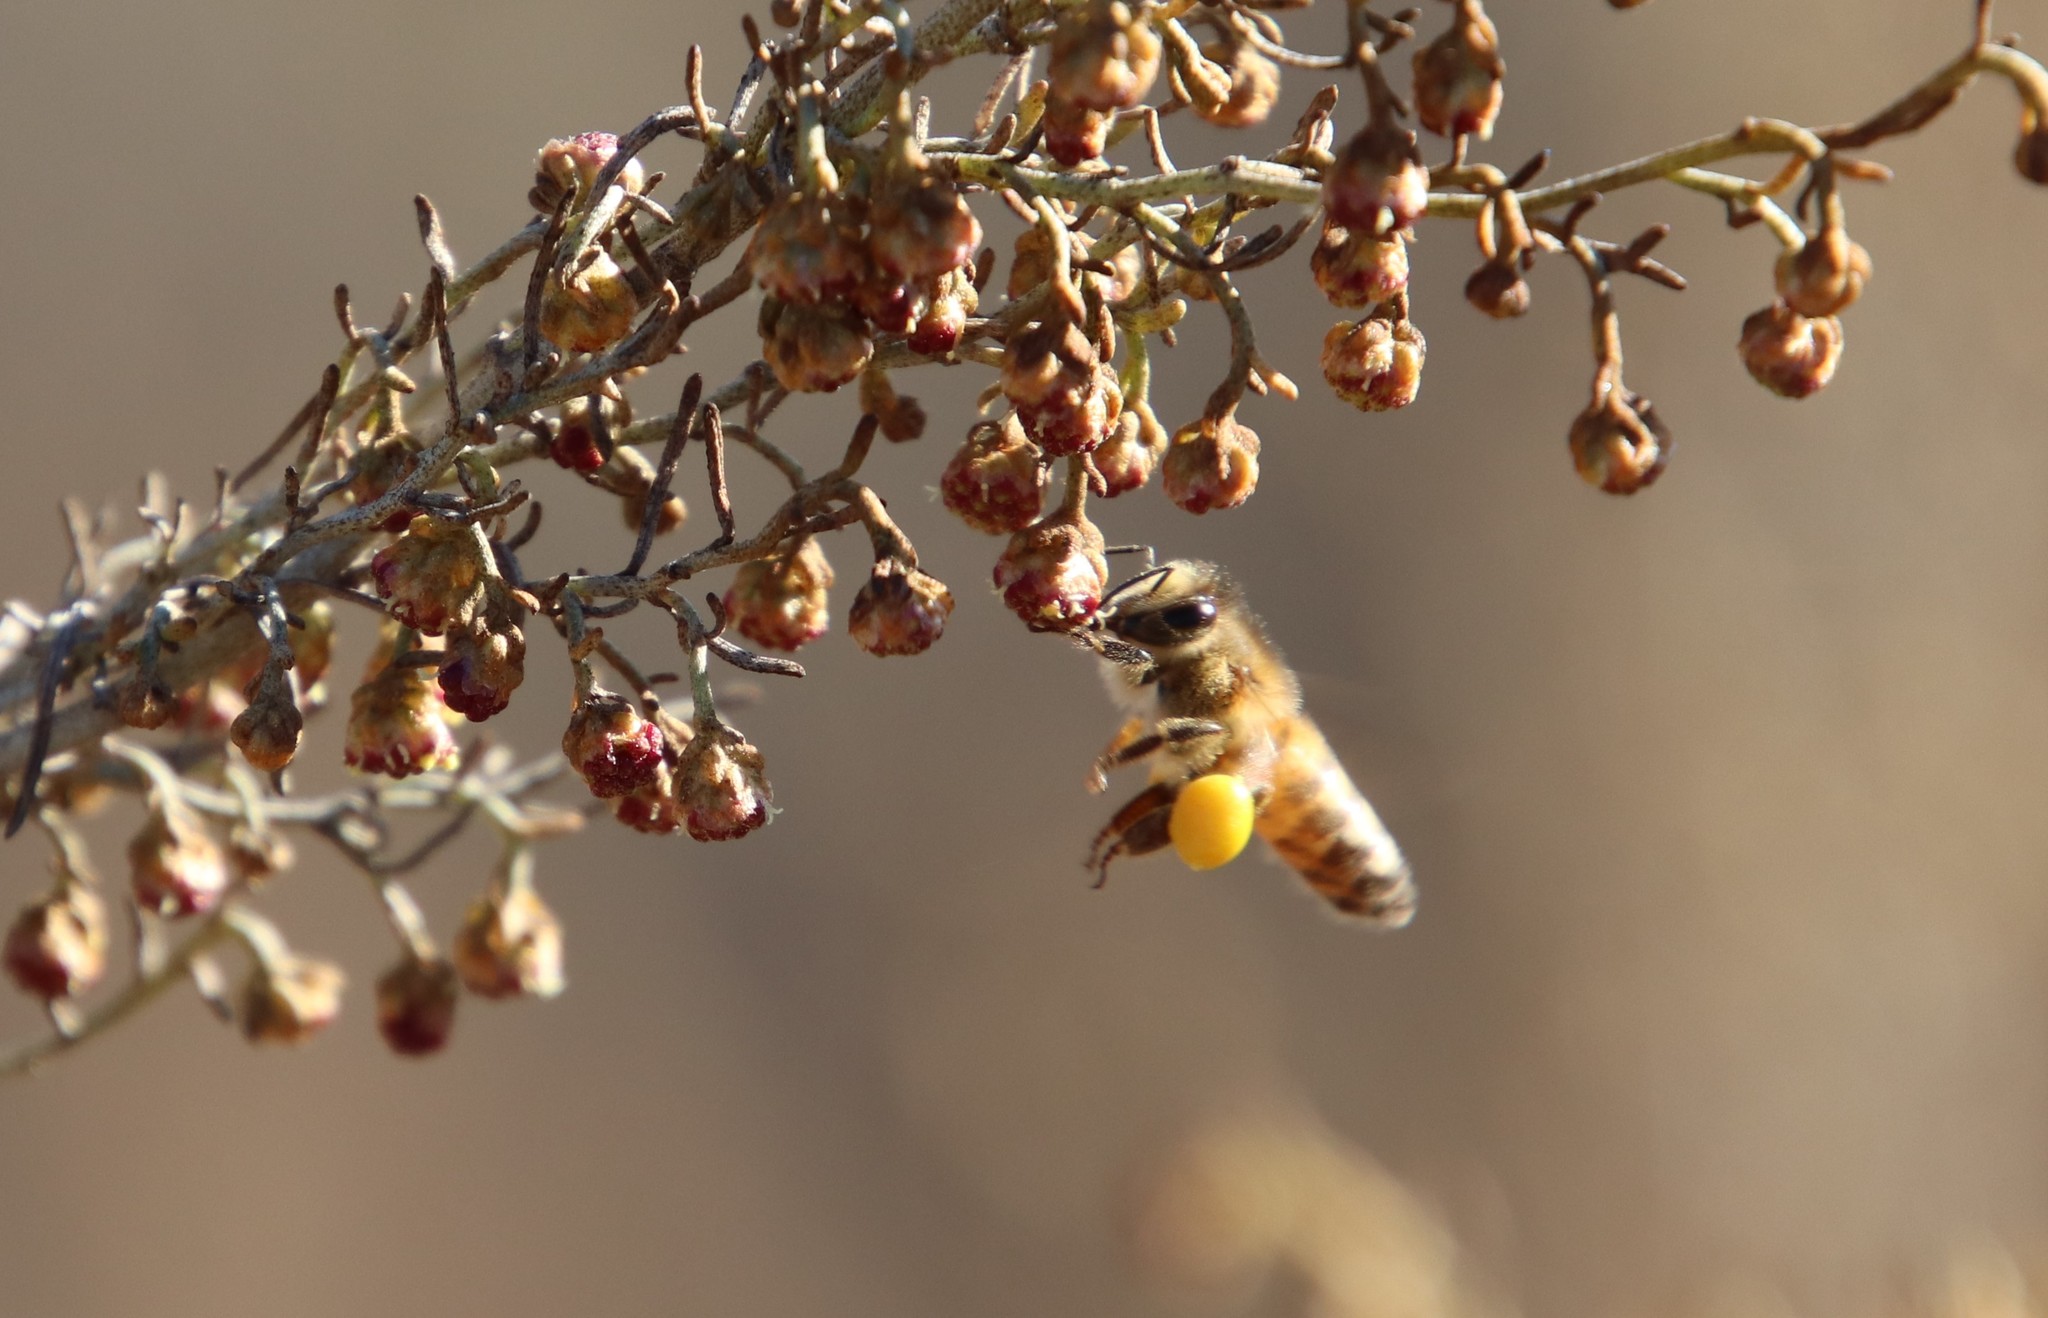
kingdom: Animalia
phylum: Arthropoda
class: Insecta
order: Hymenoptera
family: Apidae
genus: Apis
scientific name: Apis mellifera
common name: Honey bee
